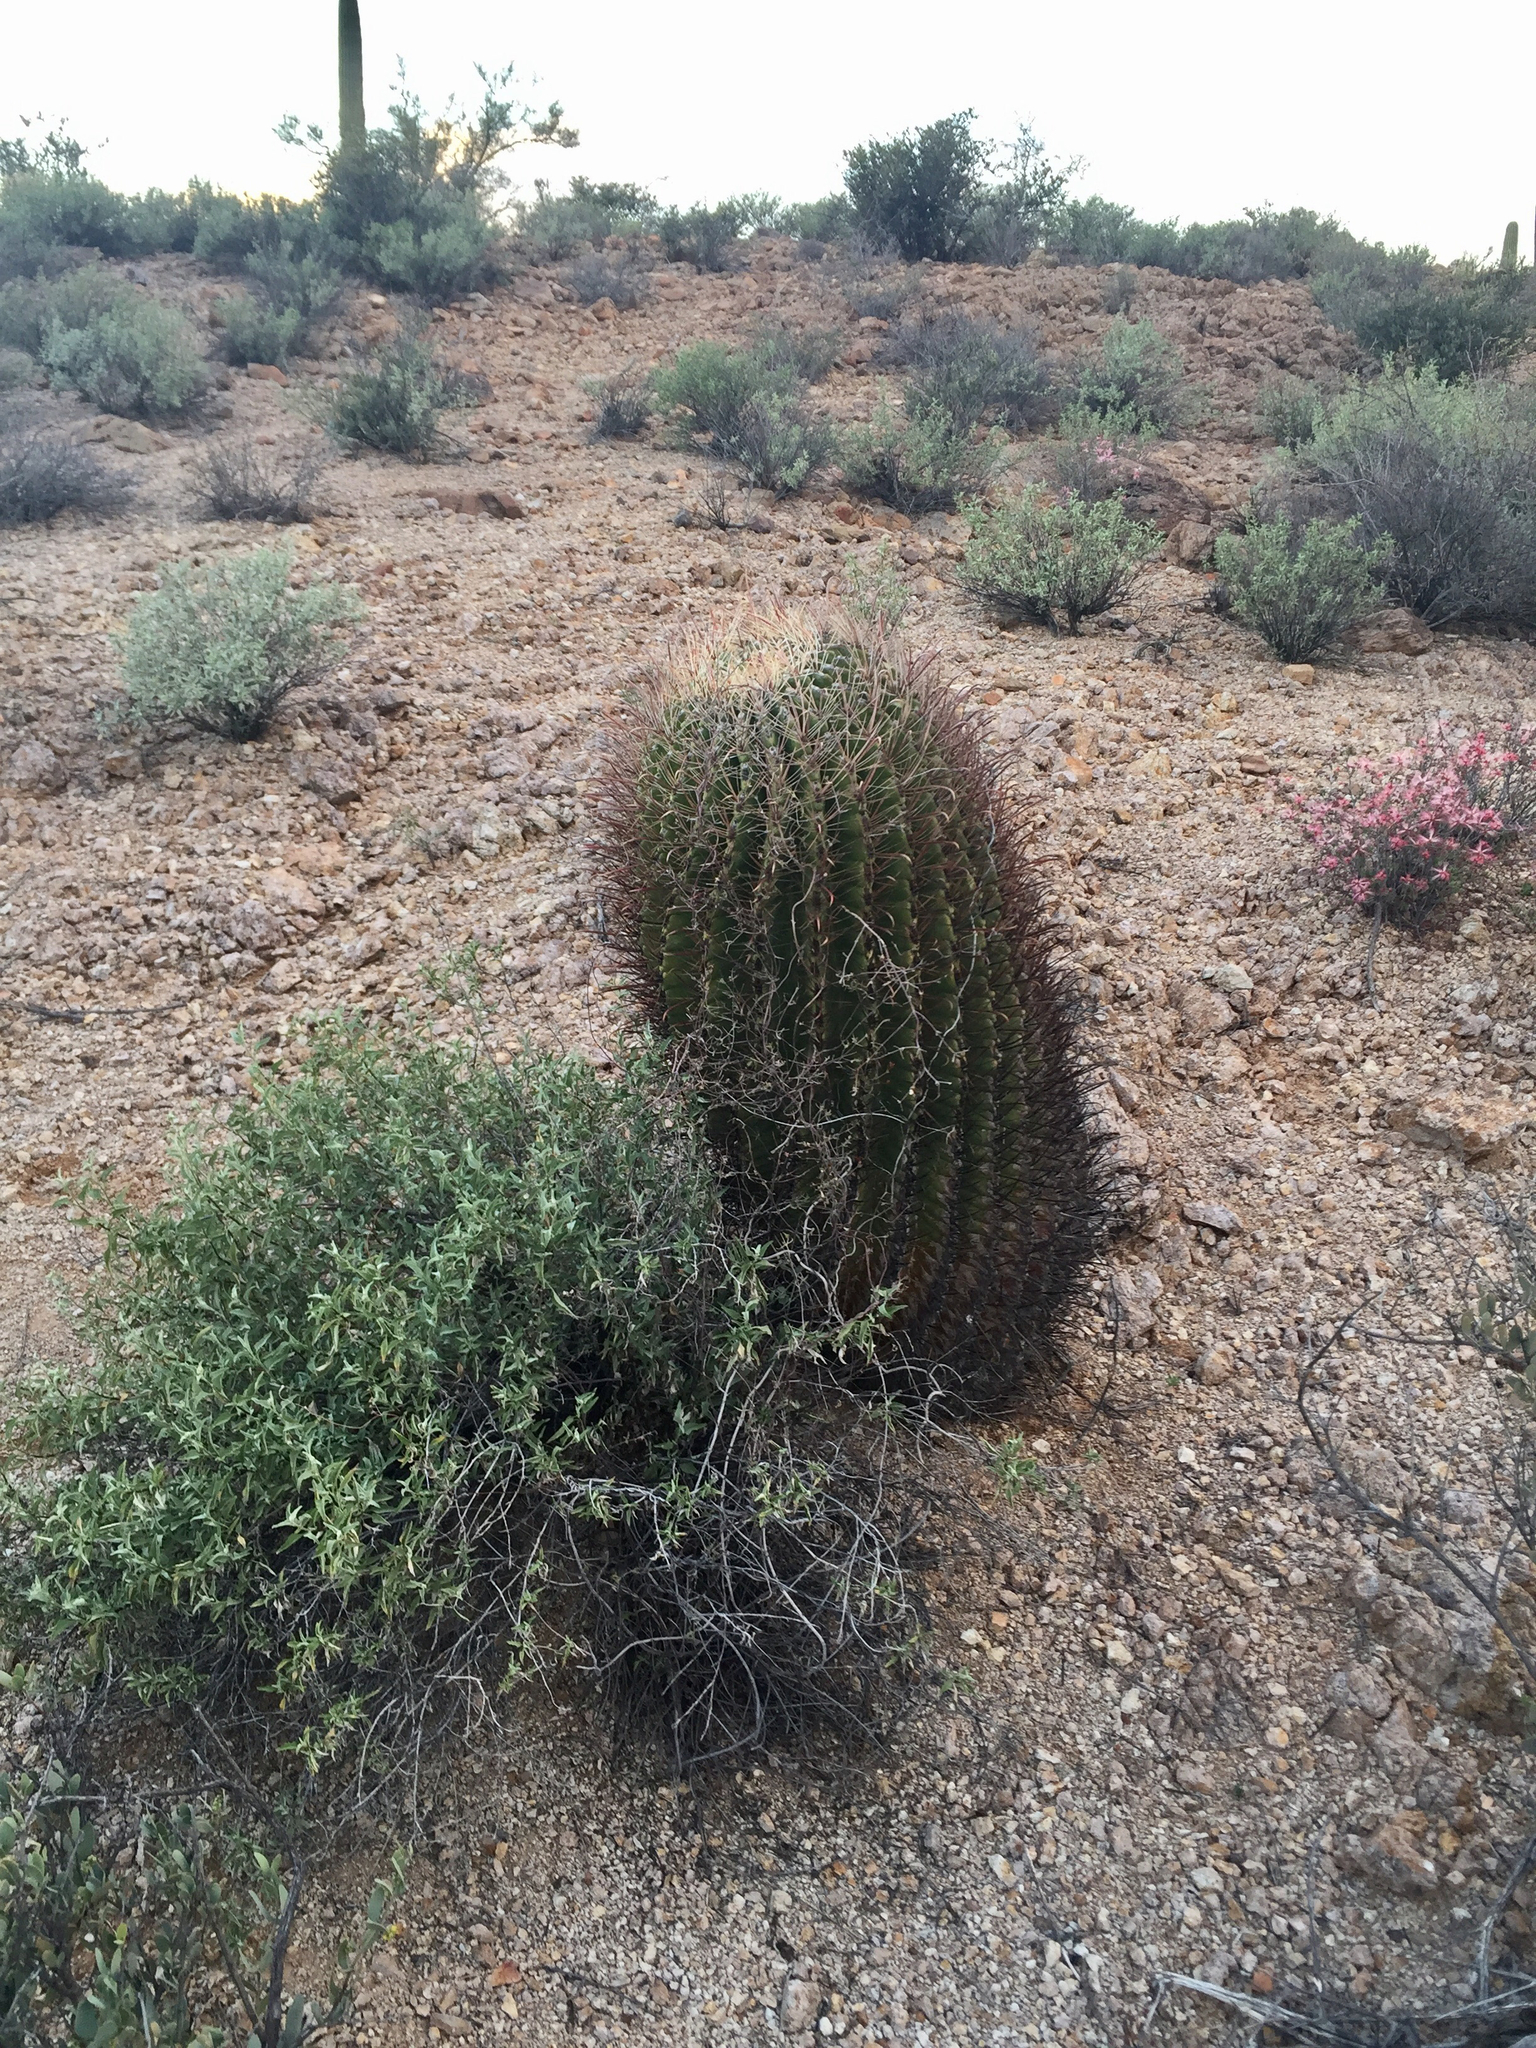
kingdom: Plantae
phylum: Tracheophyta
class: Magnoliopsida
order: Caryophyllales
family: Cactaceae
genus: Ferocactus
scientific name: Ferocactus wislizeni
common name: Candy barrel cactus
